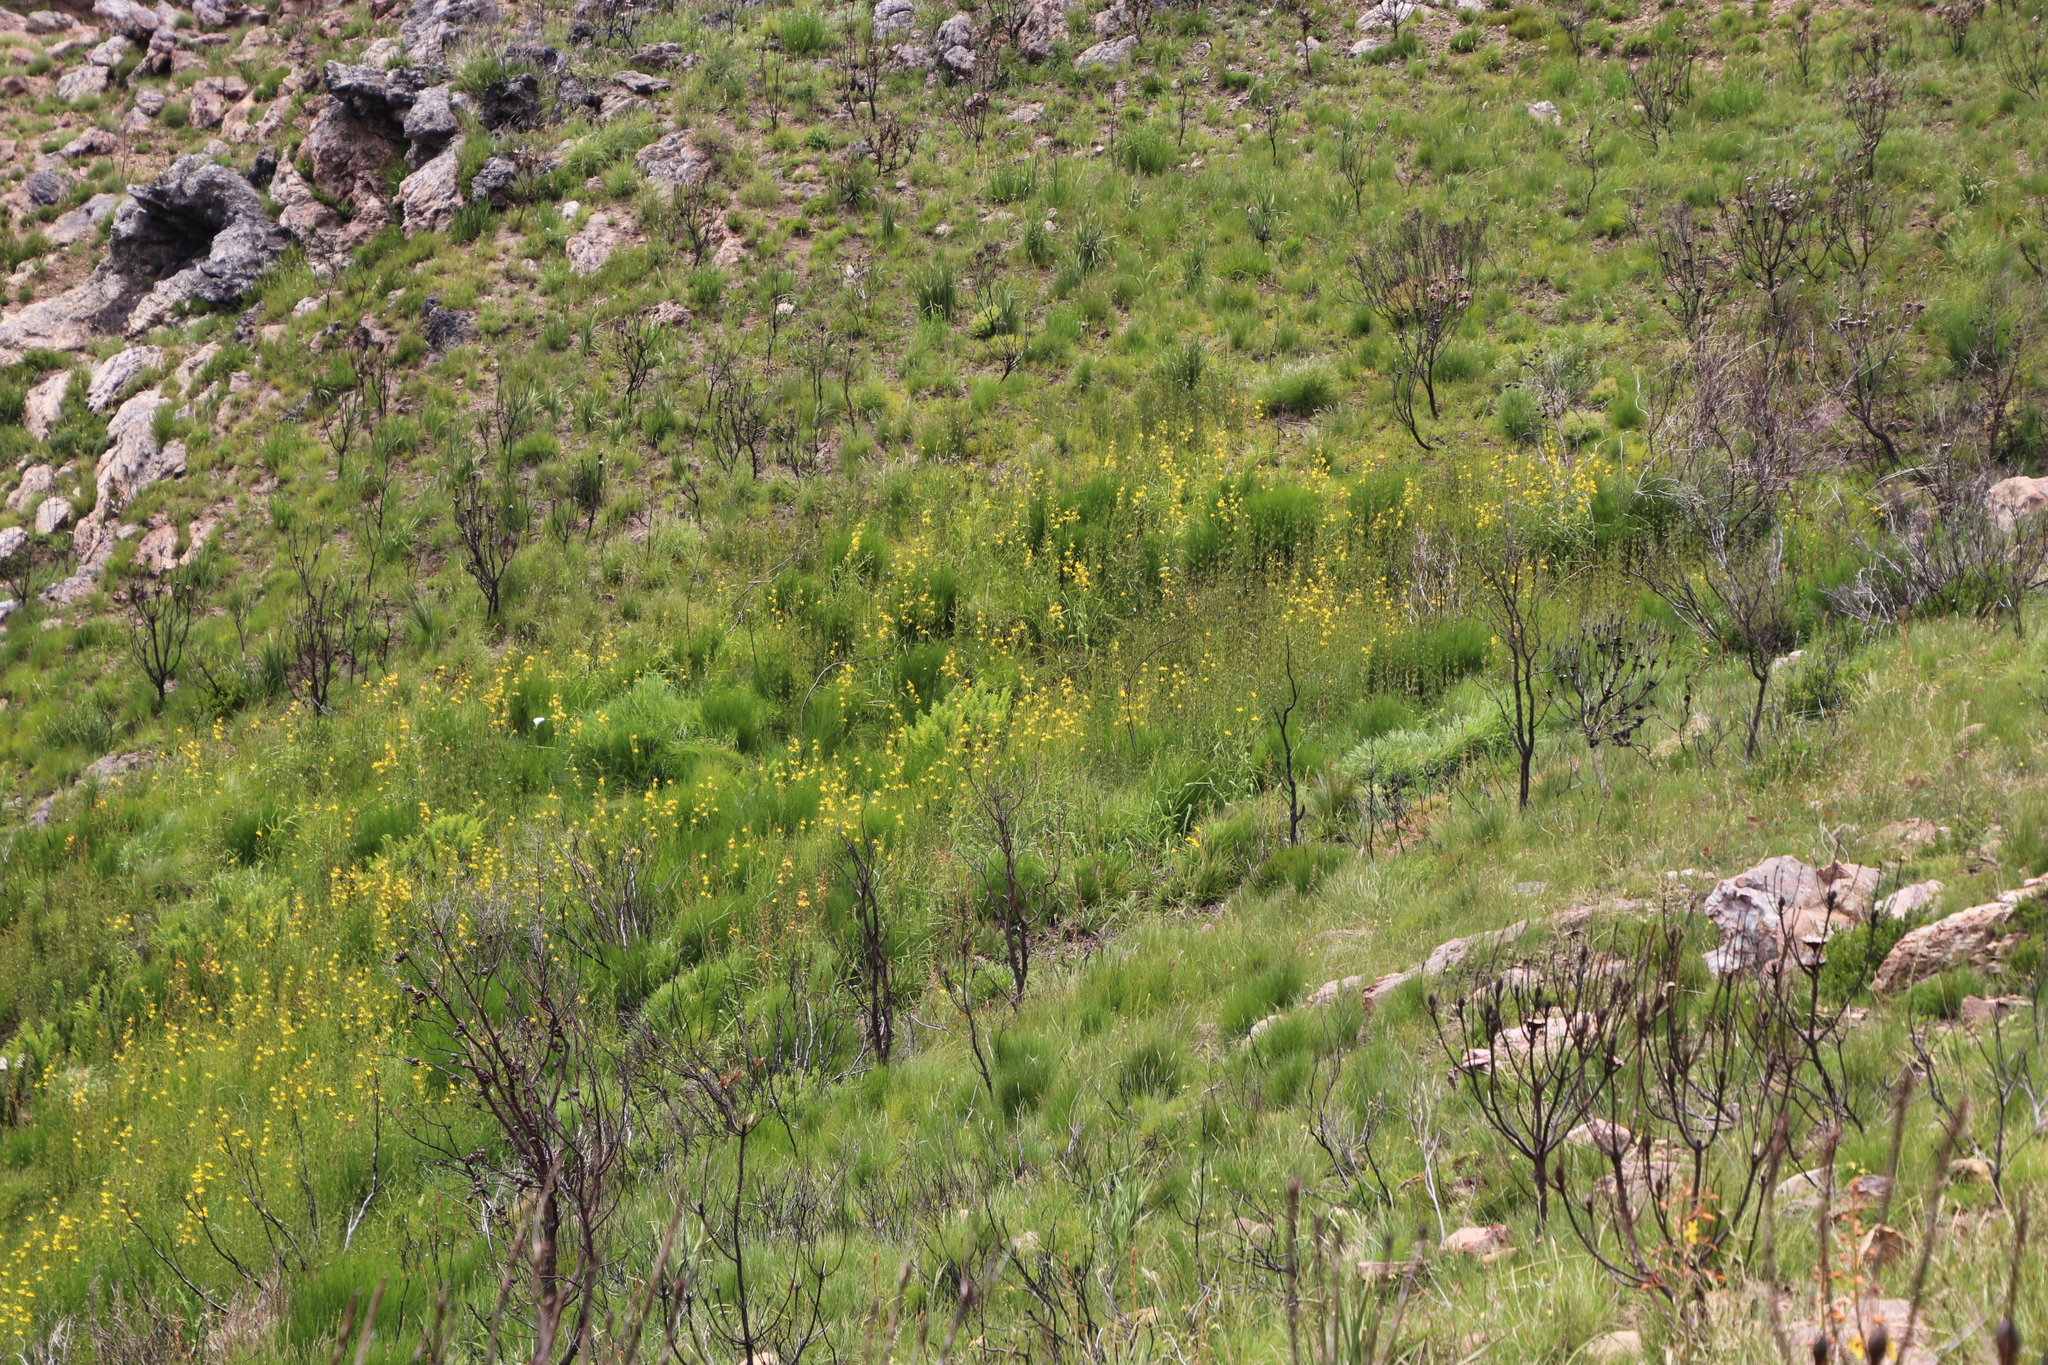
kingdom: Plantae
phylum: Tracheophyta
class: Liliopsida
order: Asparagales
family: Iridaceae
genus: Moraea
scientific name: Moraea ramosissima
